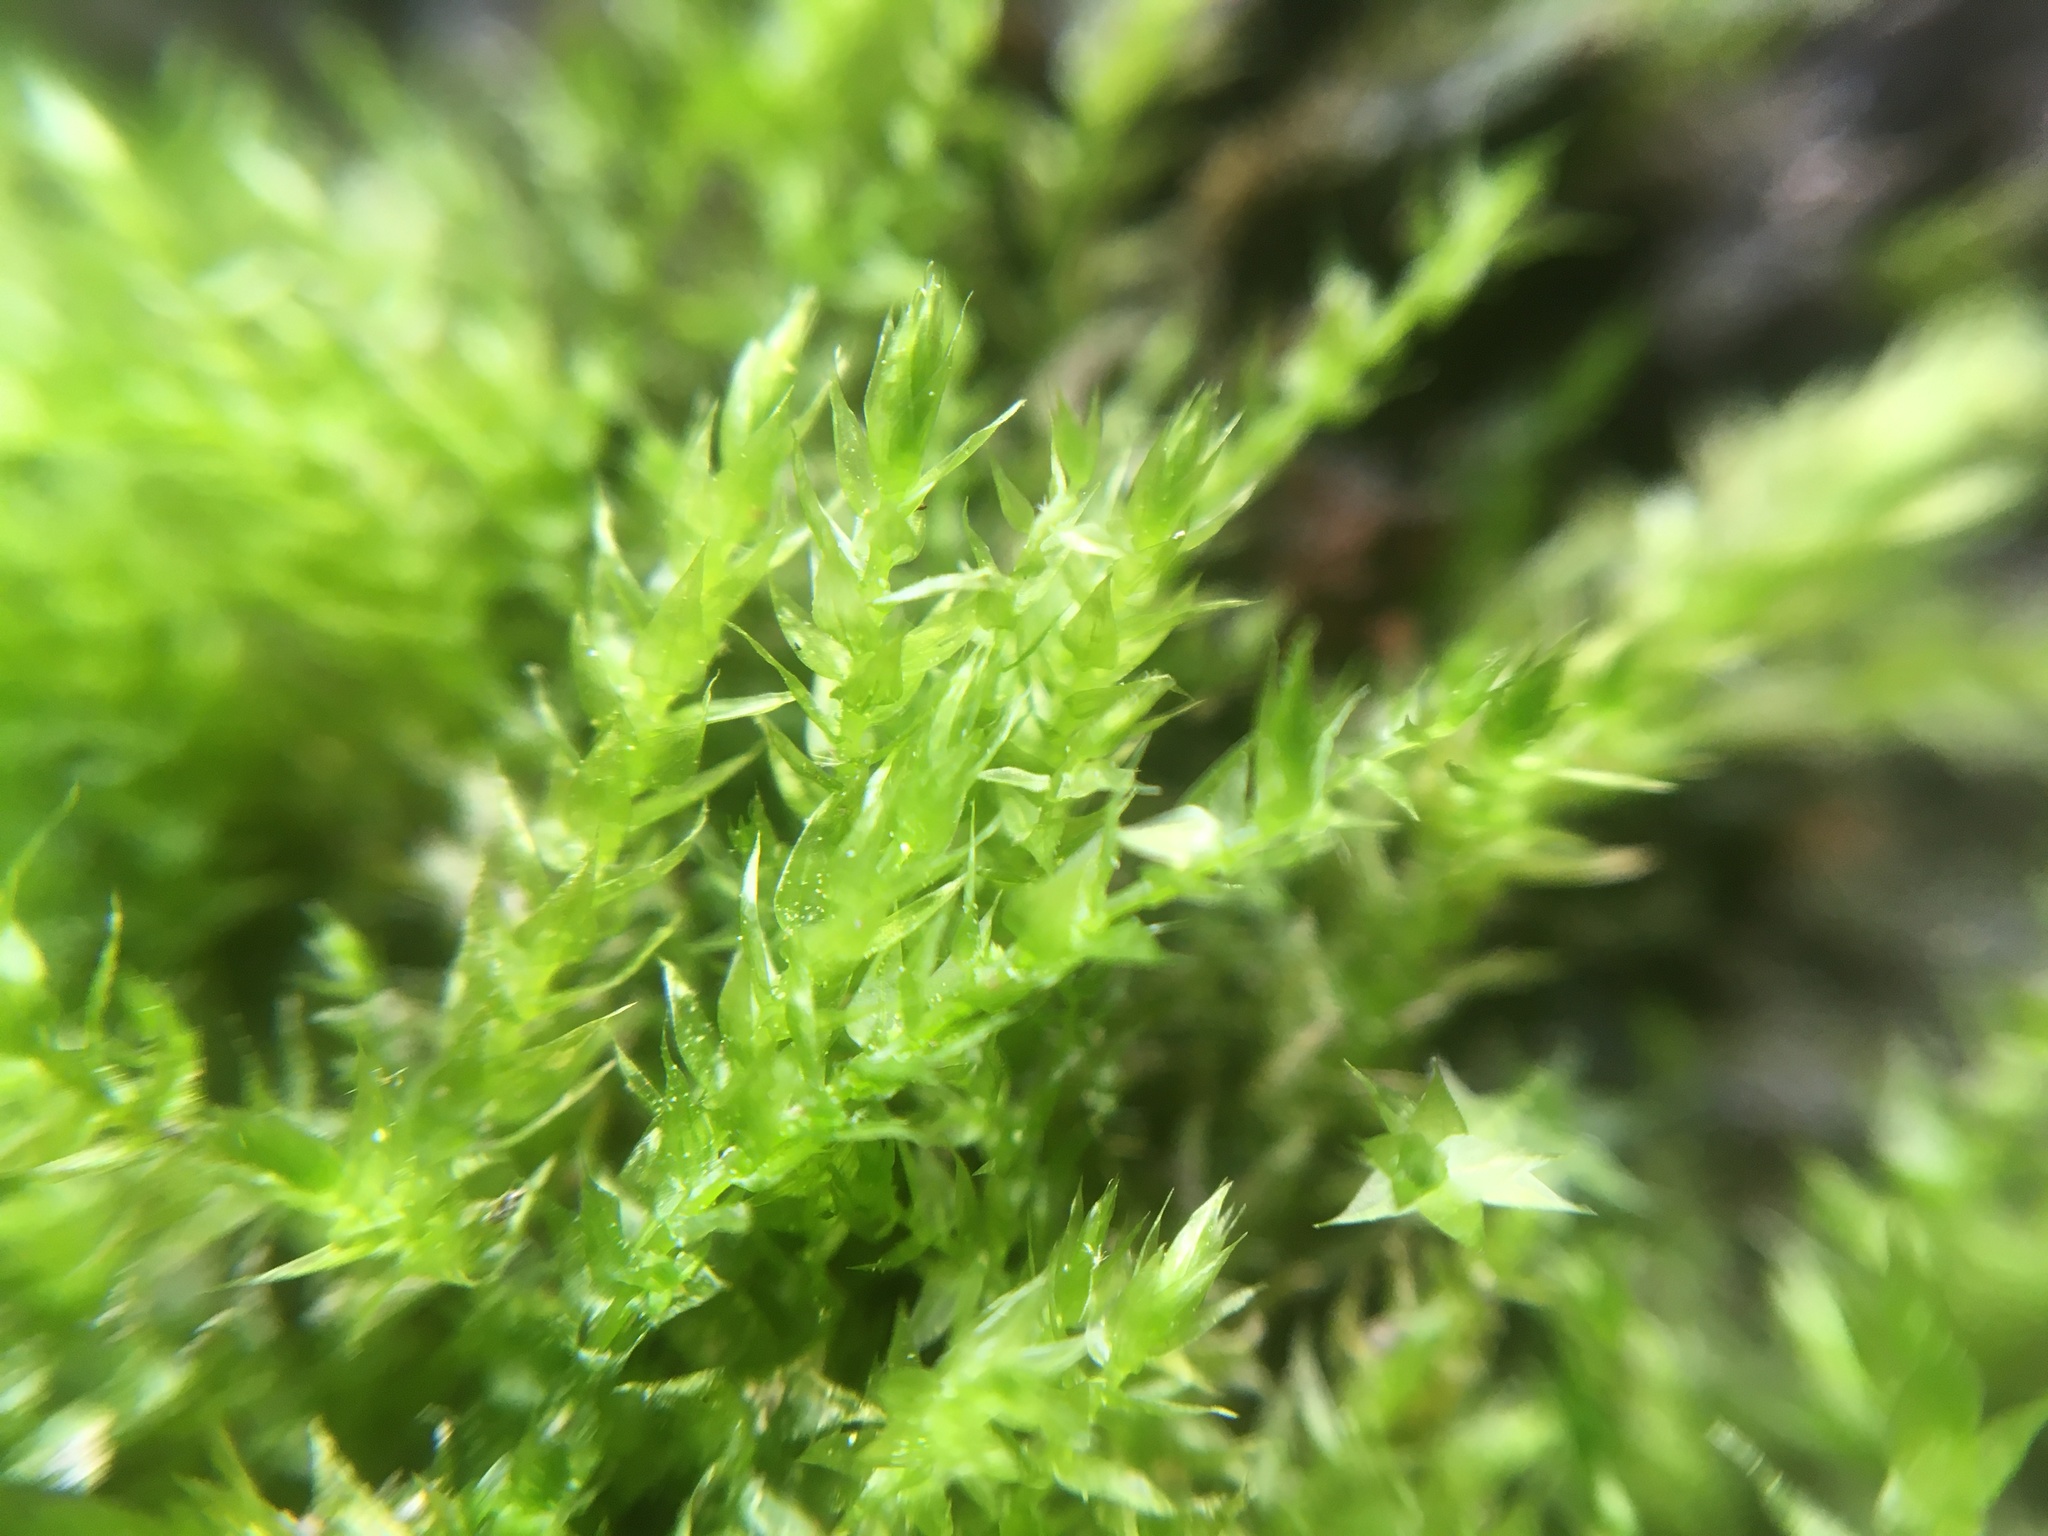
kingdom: Plantae
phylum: Bryophyta
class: Bryopsida
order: Bryales
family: Bryaceae
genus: Rosulabryum
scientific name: Rosulabryum capillare
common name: Capillary thread-moss
